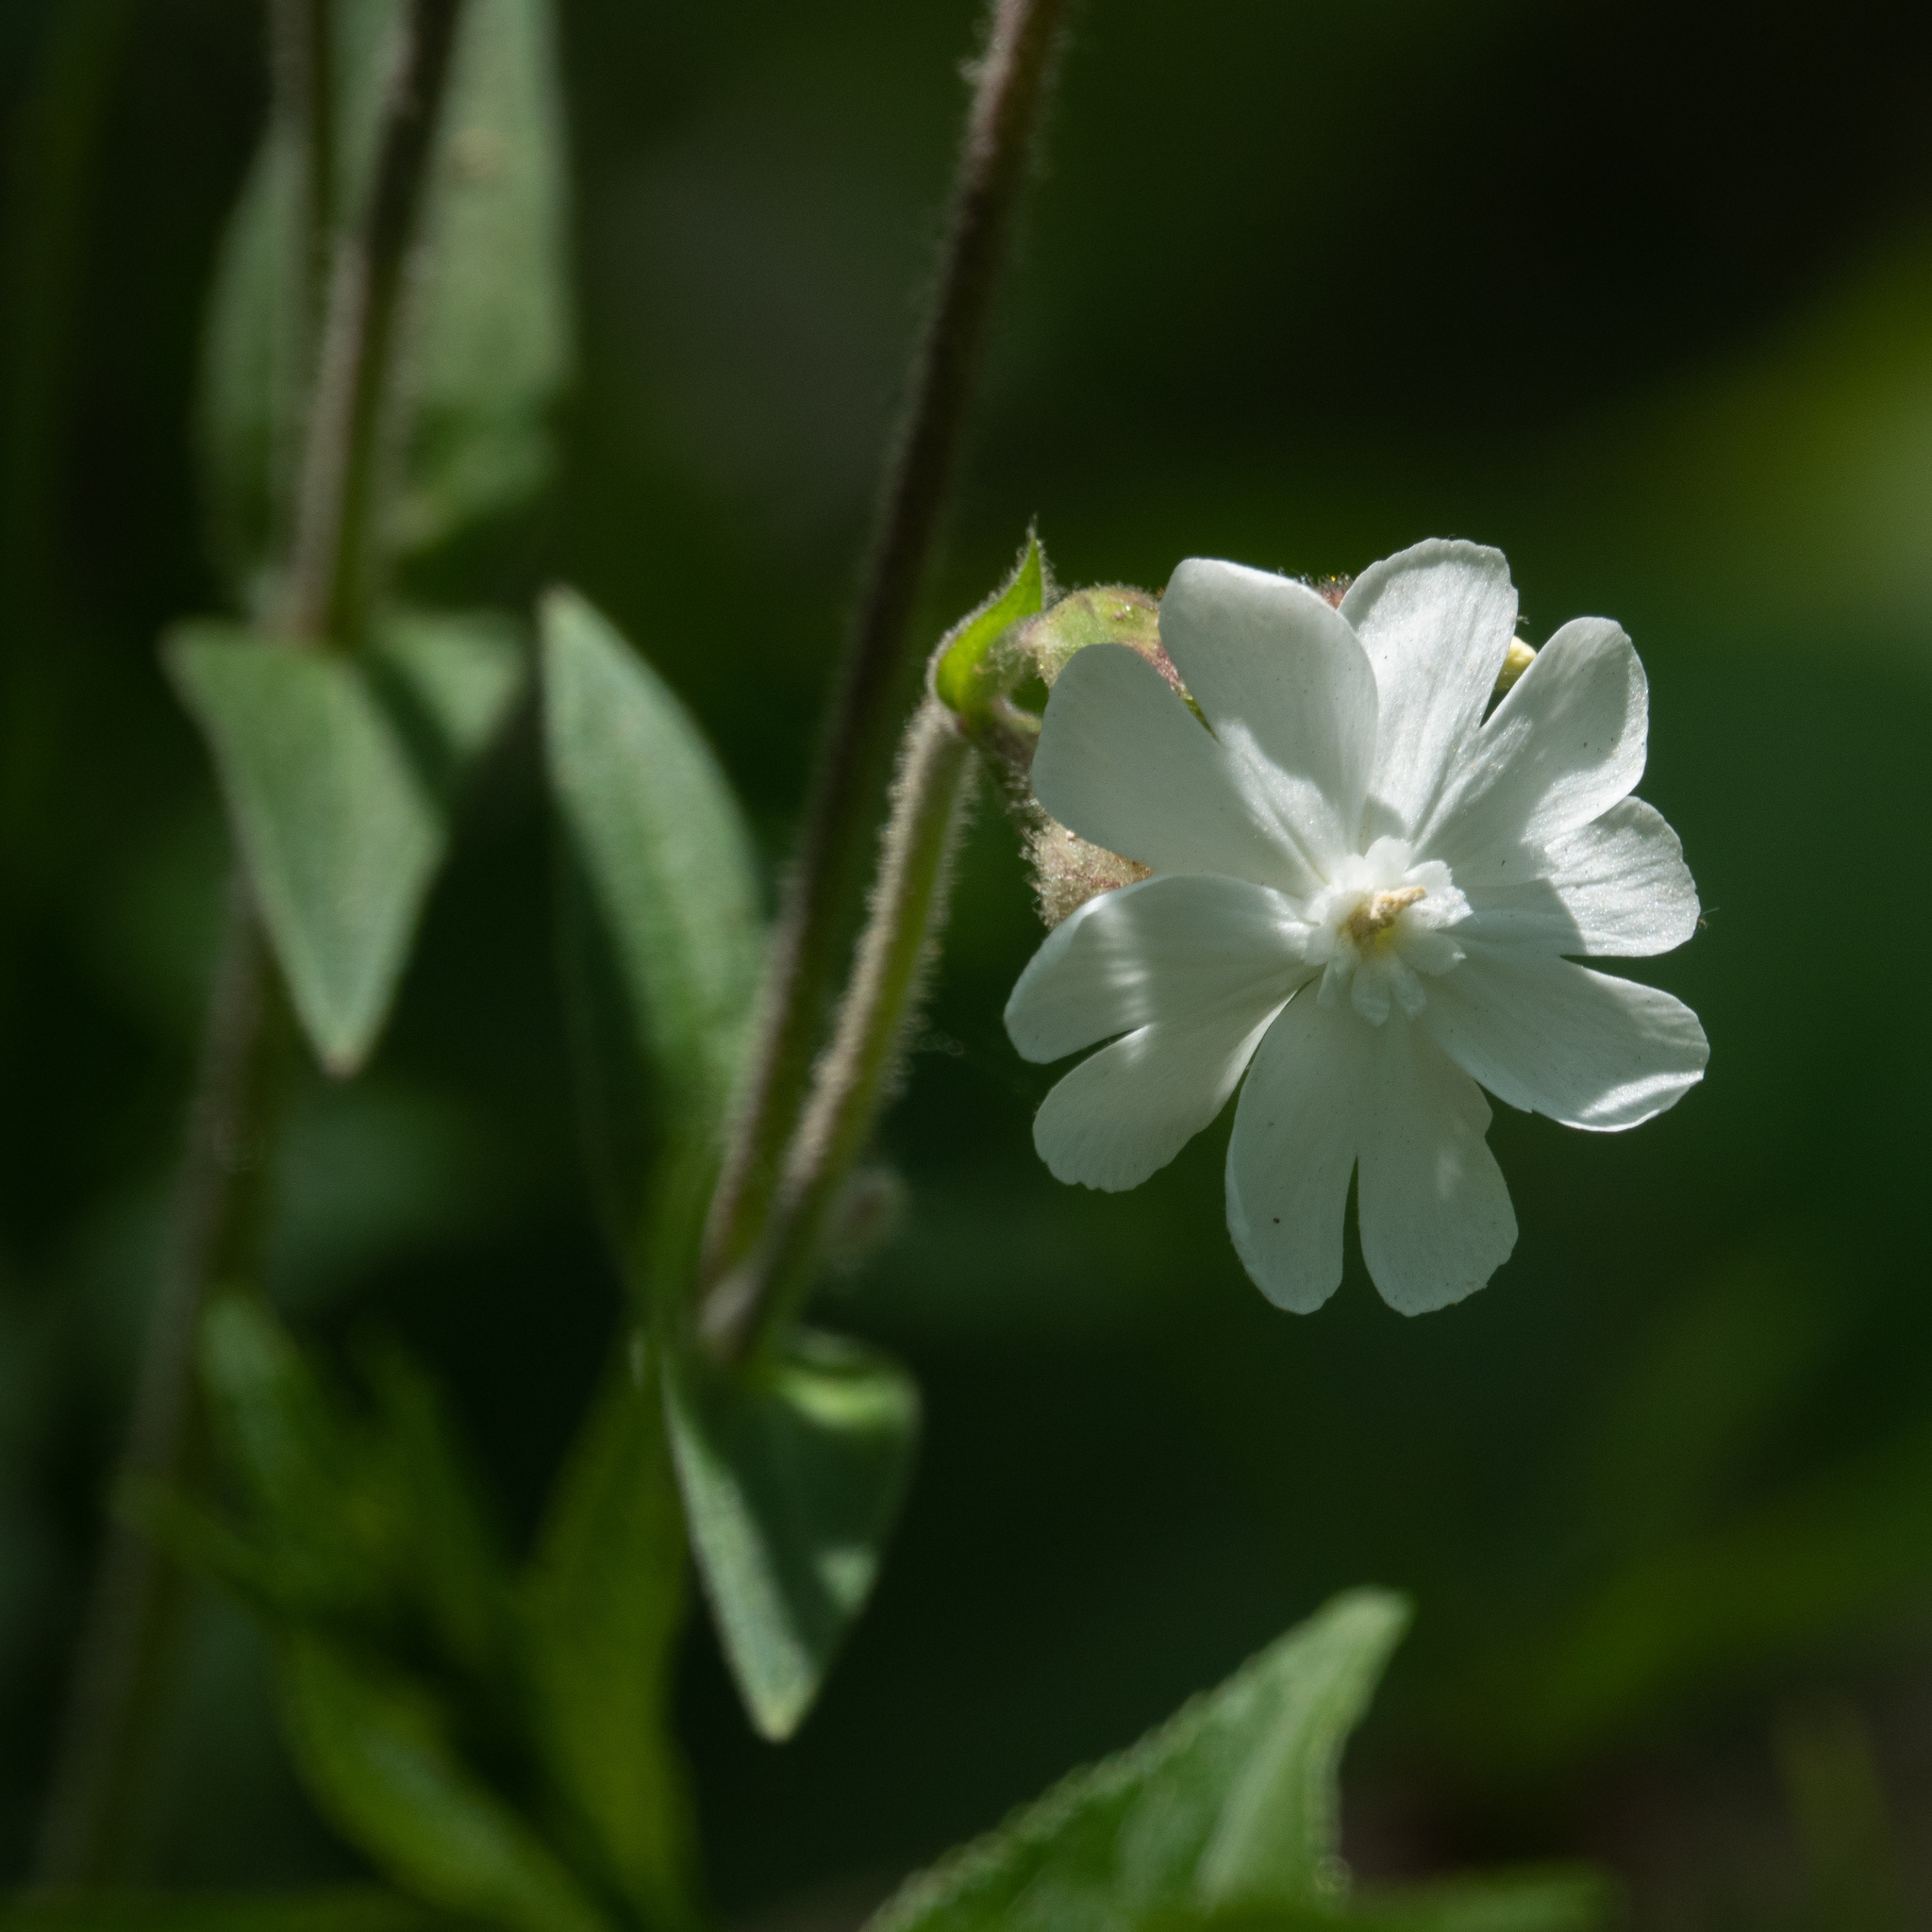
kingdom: Plantae
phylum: Tracheophyta
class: Magnoliopsida
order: Caryophyllales
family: Caryophyllaceae
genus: Silene
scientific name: Silene latifolia
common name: White campion
